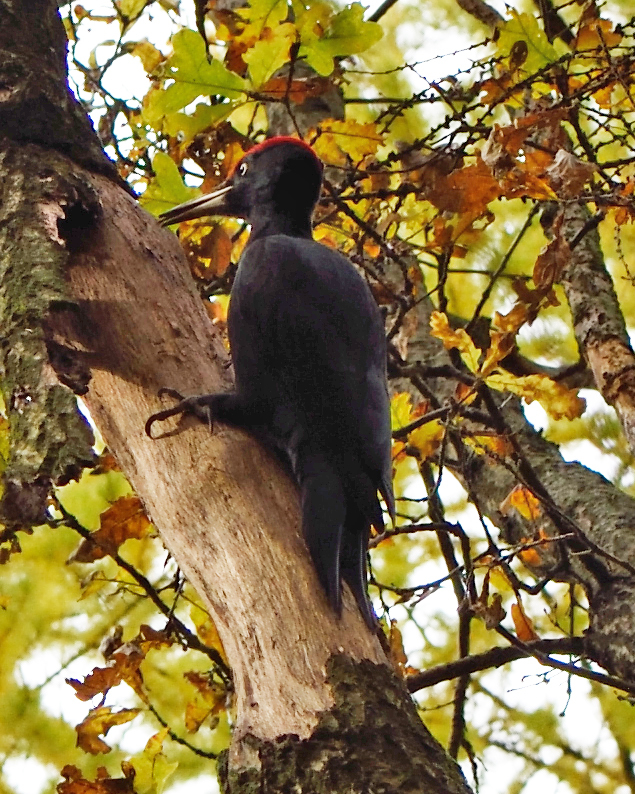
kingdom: Animalia
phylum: Chordata
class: Aves
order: Piciformes
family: Picidae
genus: Dryocopus
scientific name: Dryocopus martius
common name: Black woodpecker
